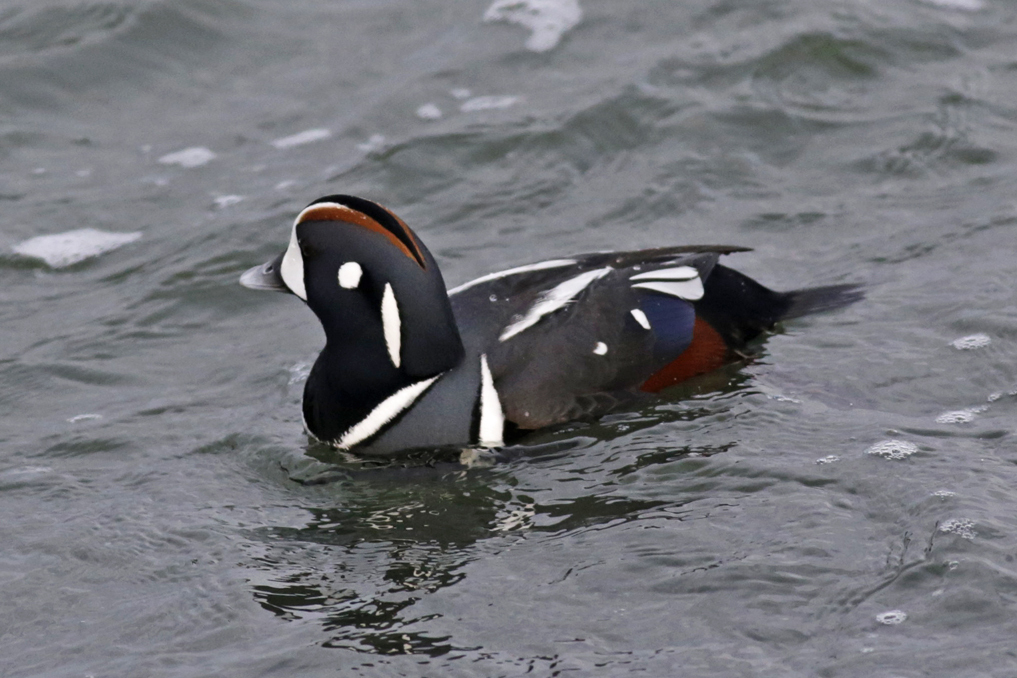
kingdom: Animalia
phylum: Chordata
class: Aves
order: Anseriformes
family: Anatidae
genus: Histrionicus
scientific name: Histrionicus histrionicus
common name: Harlequin duck
